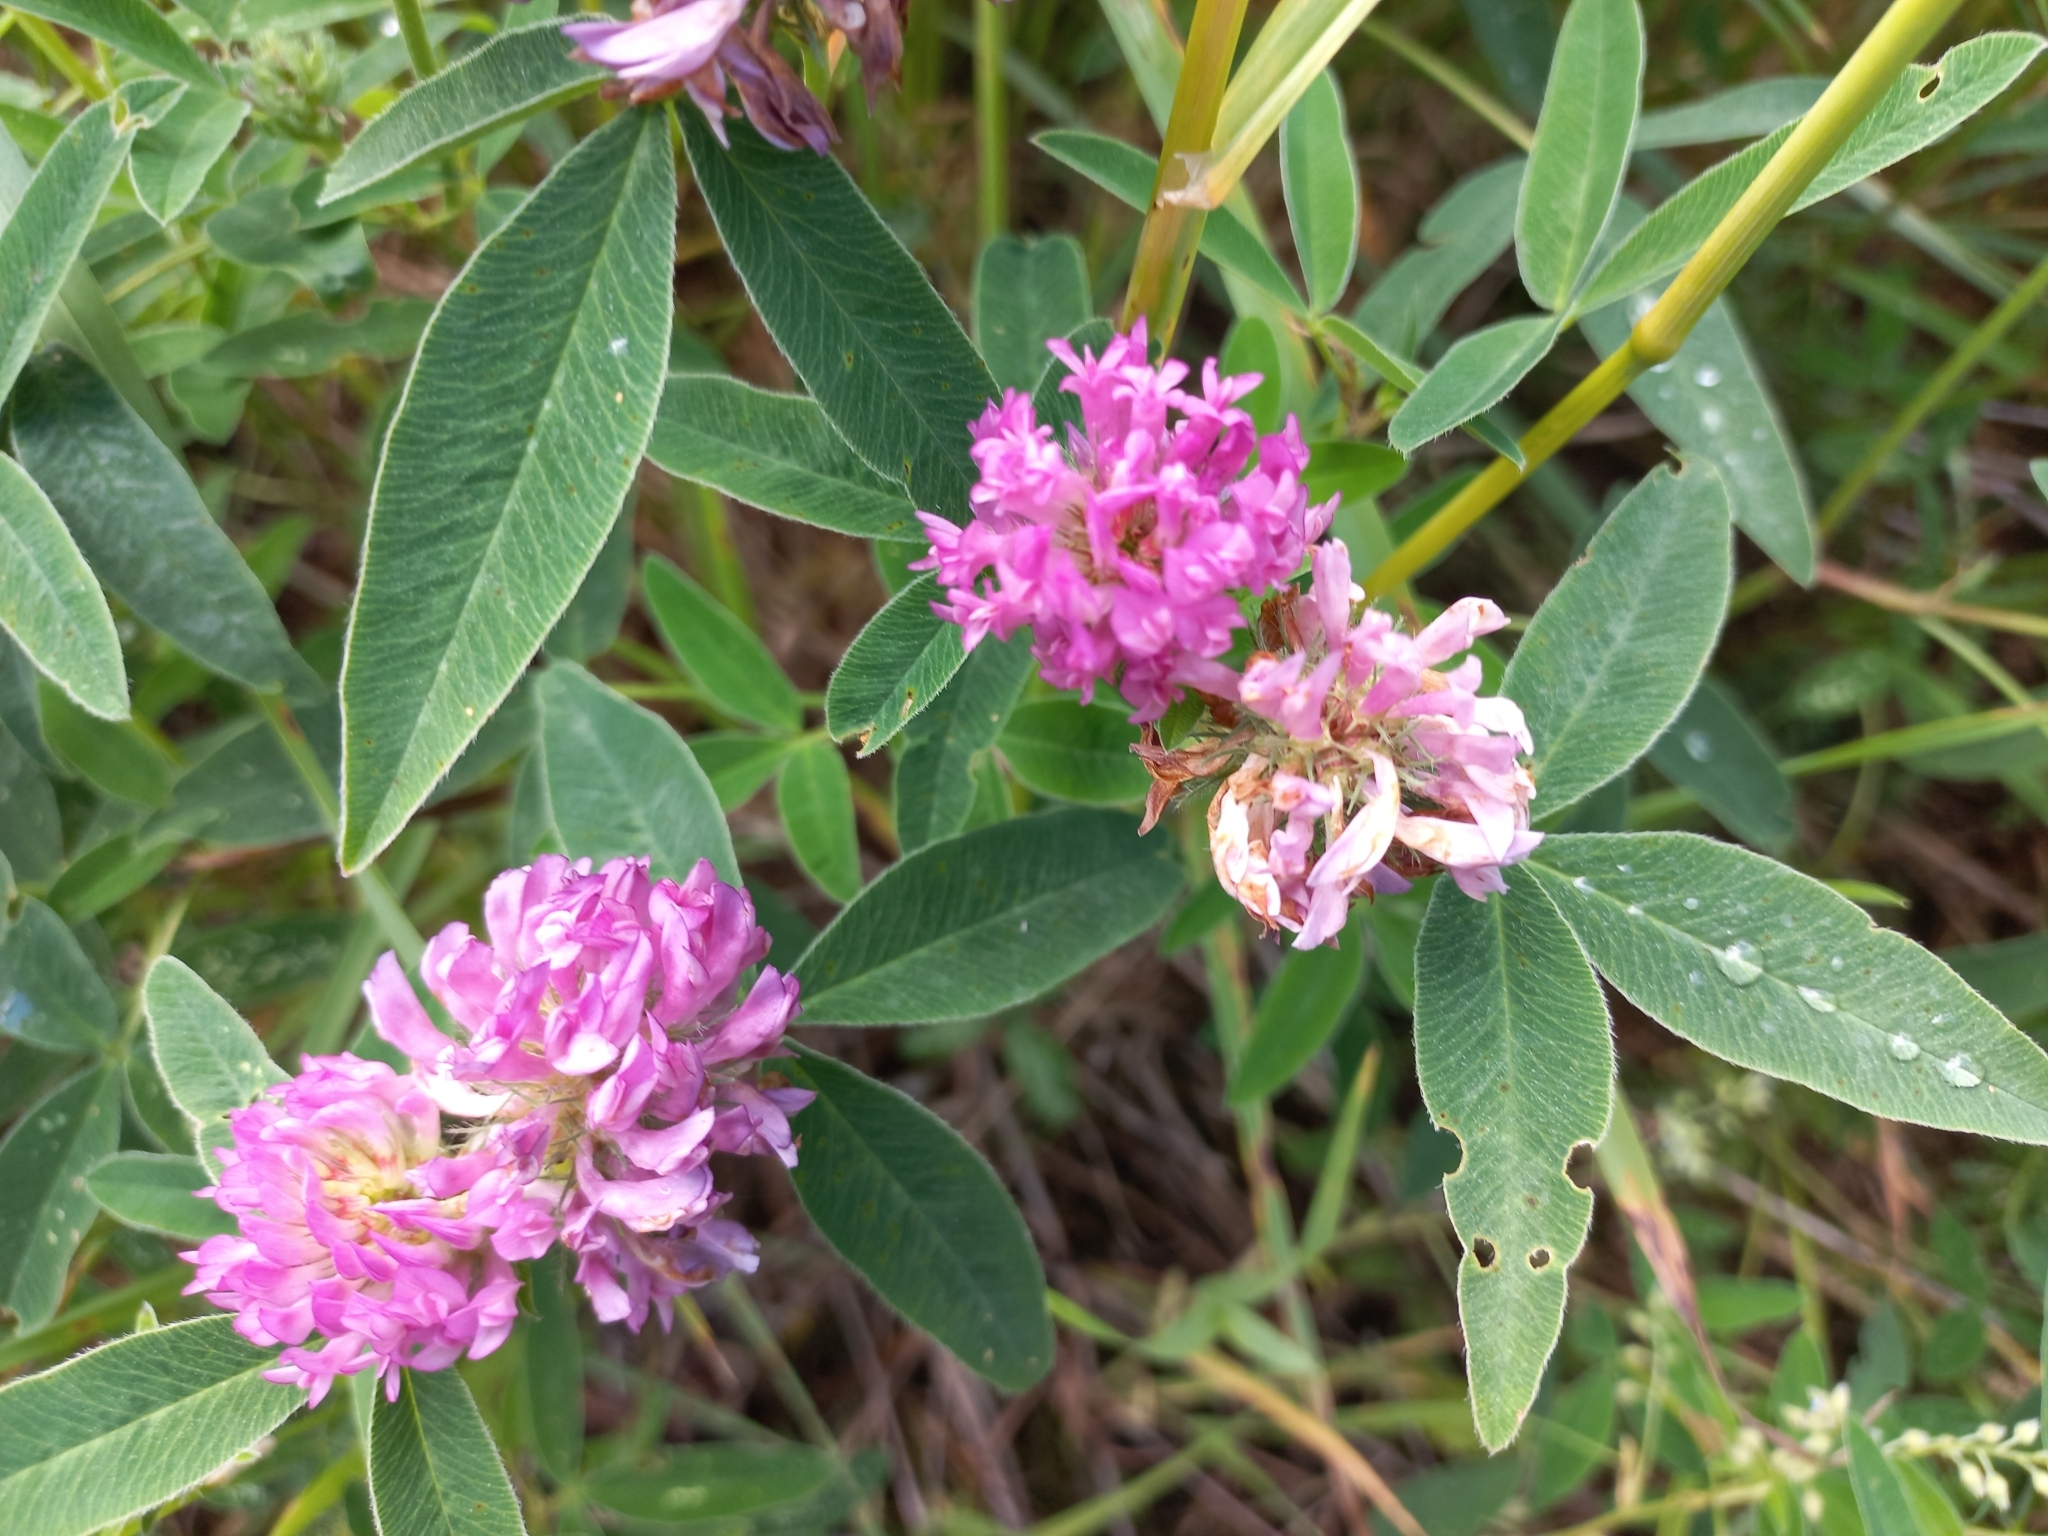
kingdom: Plantae
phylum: Tracheophyta
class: Magnoliopsida
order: Fabales
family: Fabaceae
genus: Trifolium
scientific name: Trifolium medium
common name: Zigzag clover
